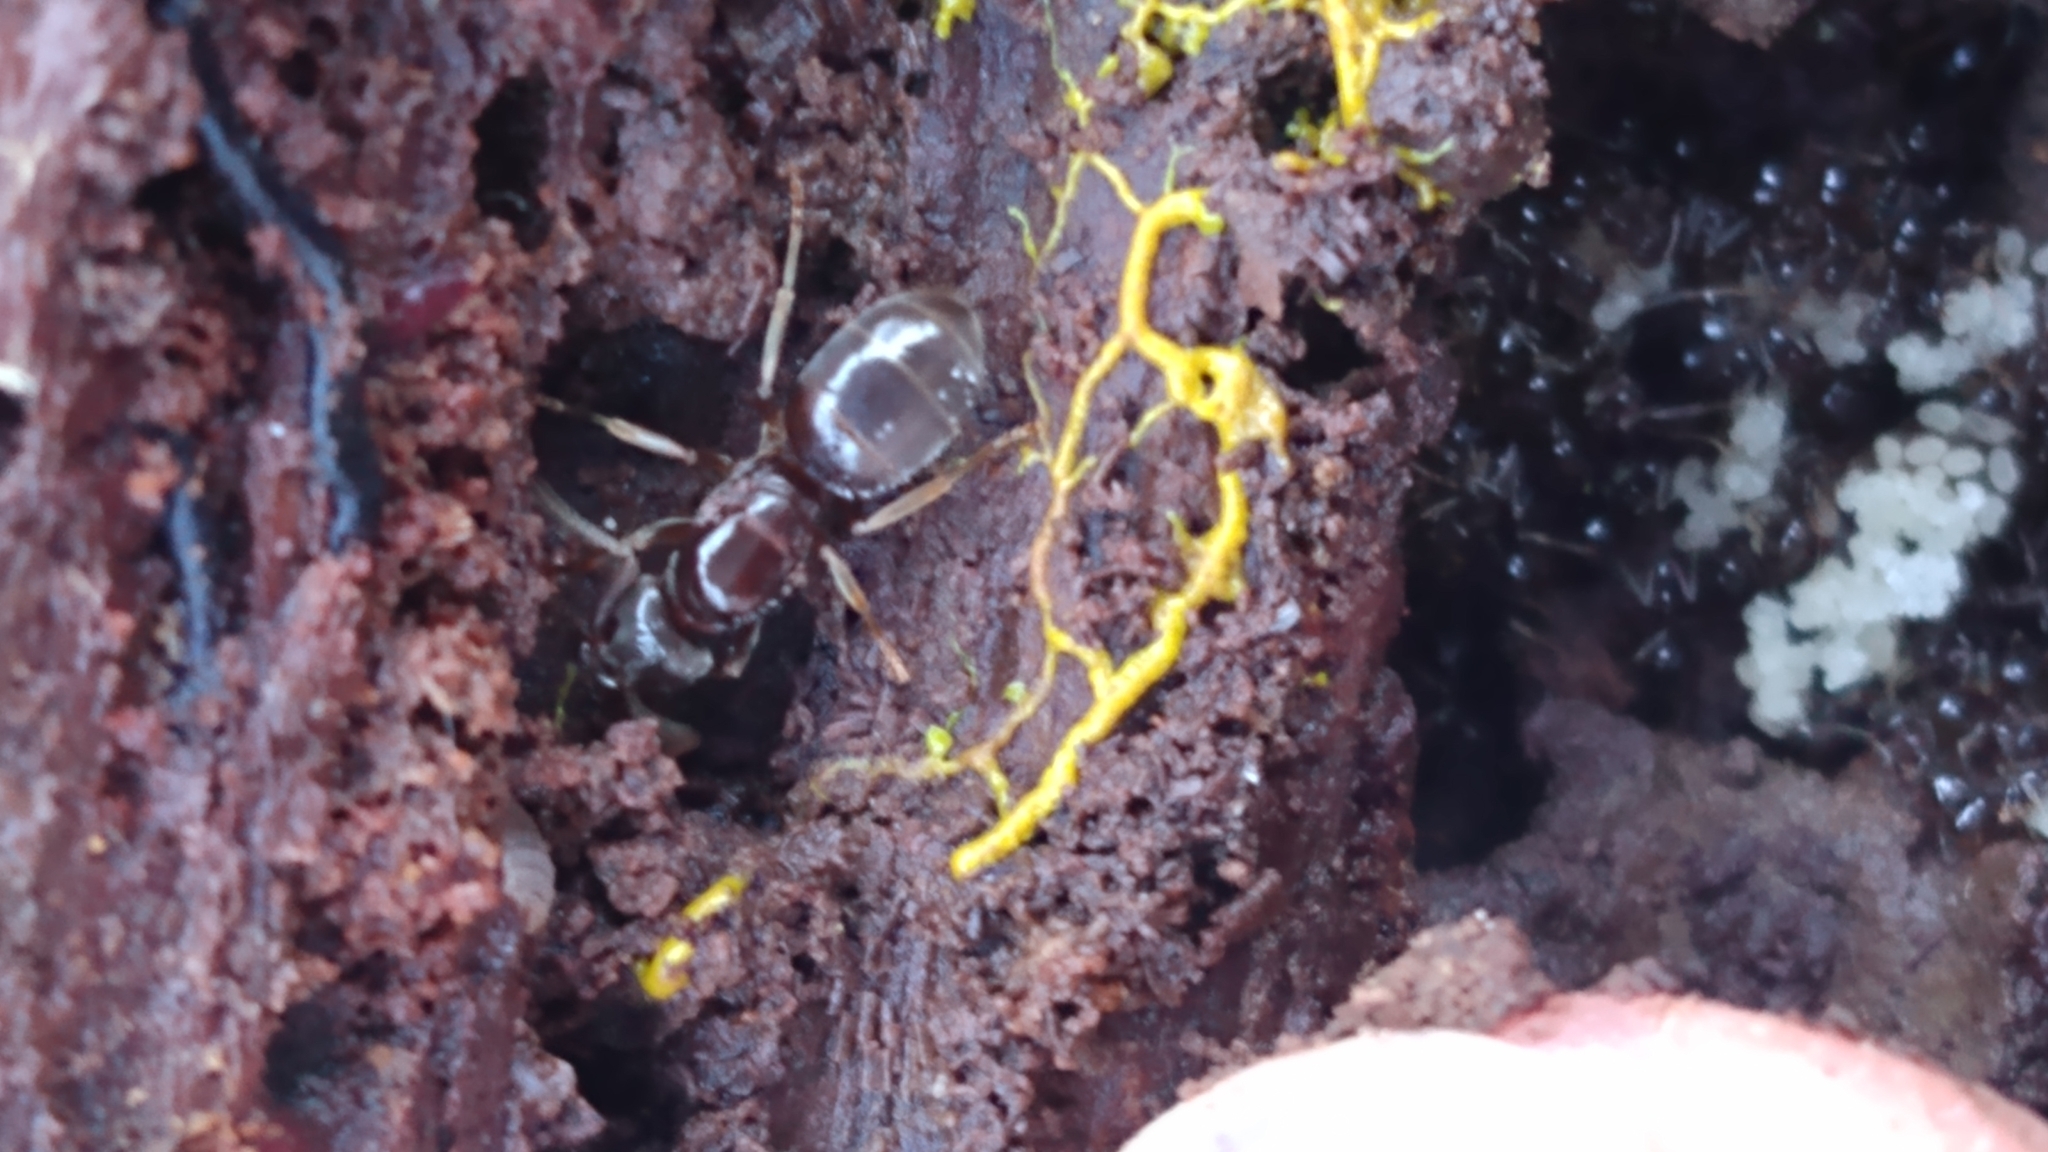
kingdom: Animalia
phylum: Arthropoda
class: Insecta
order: Hymenoptera
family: Formicidae
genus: Lasius
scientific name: Lasius aphidicola
